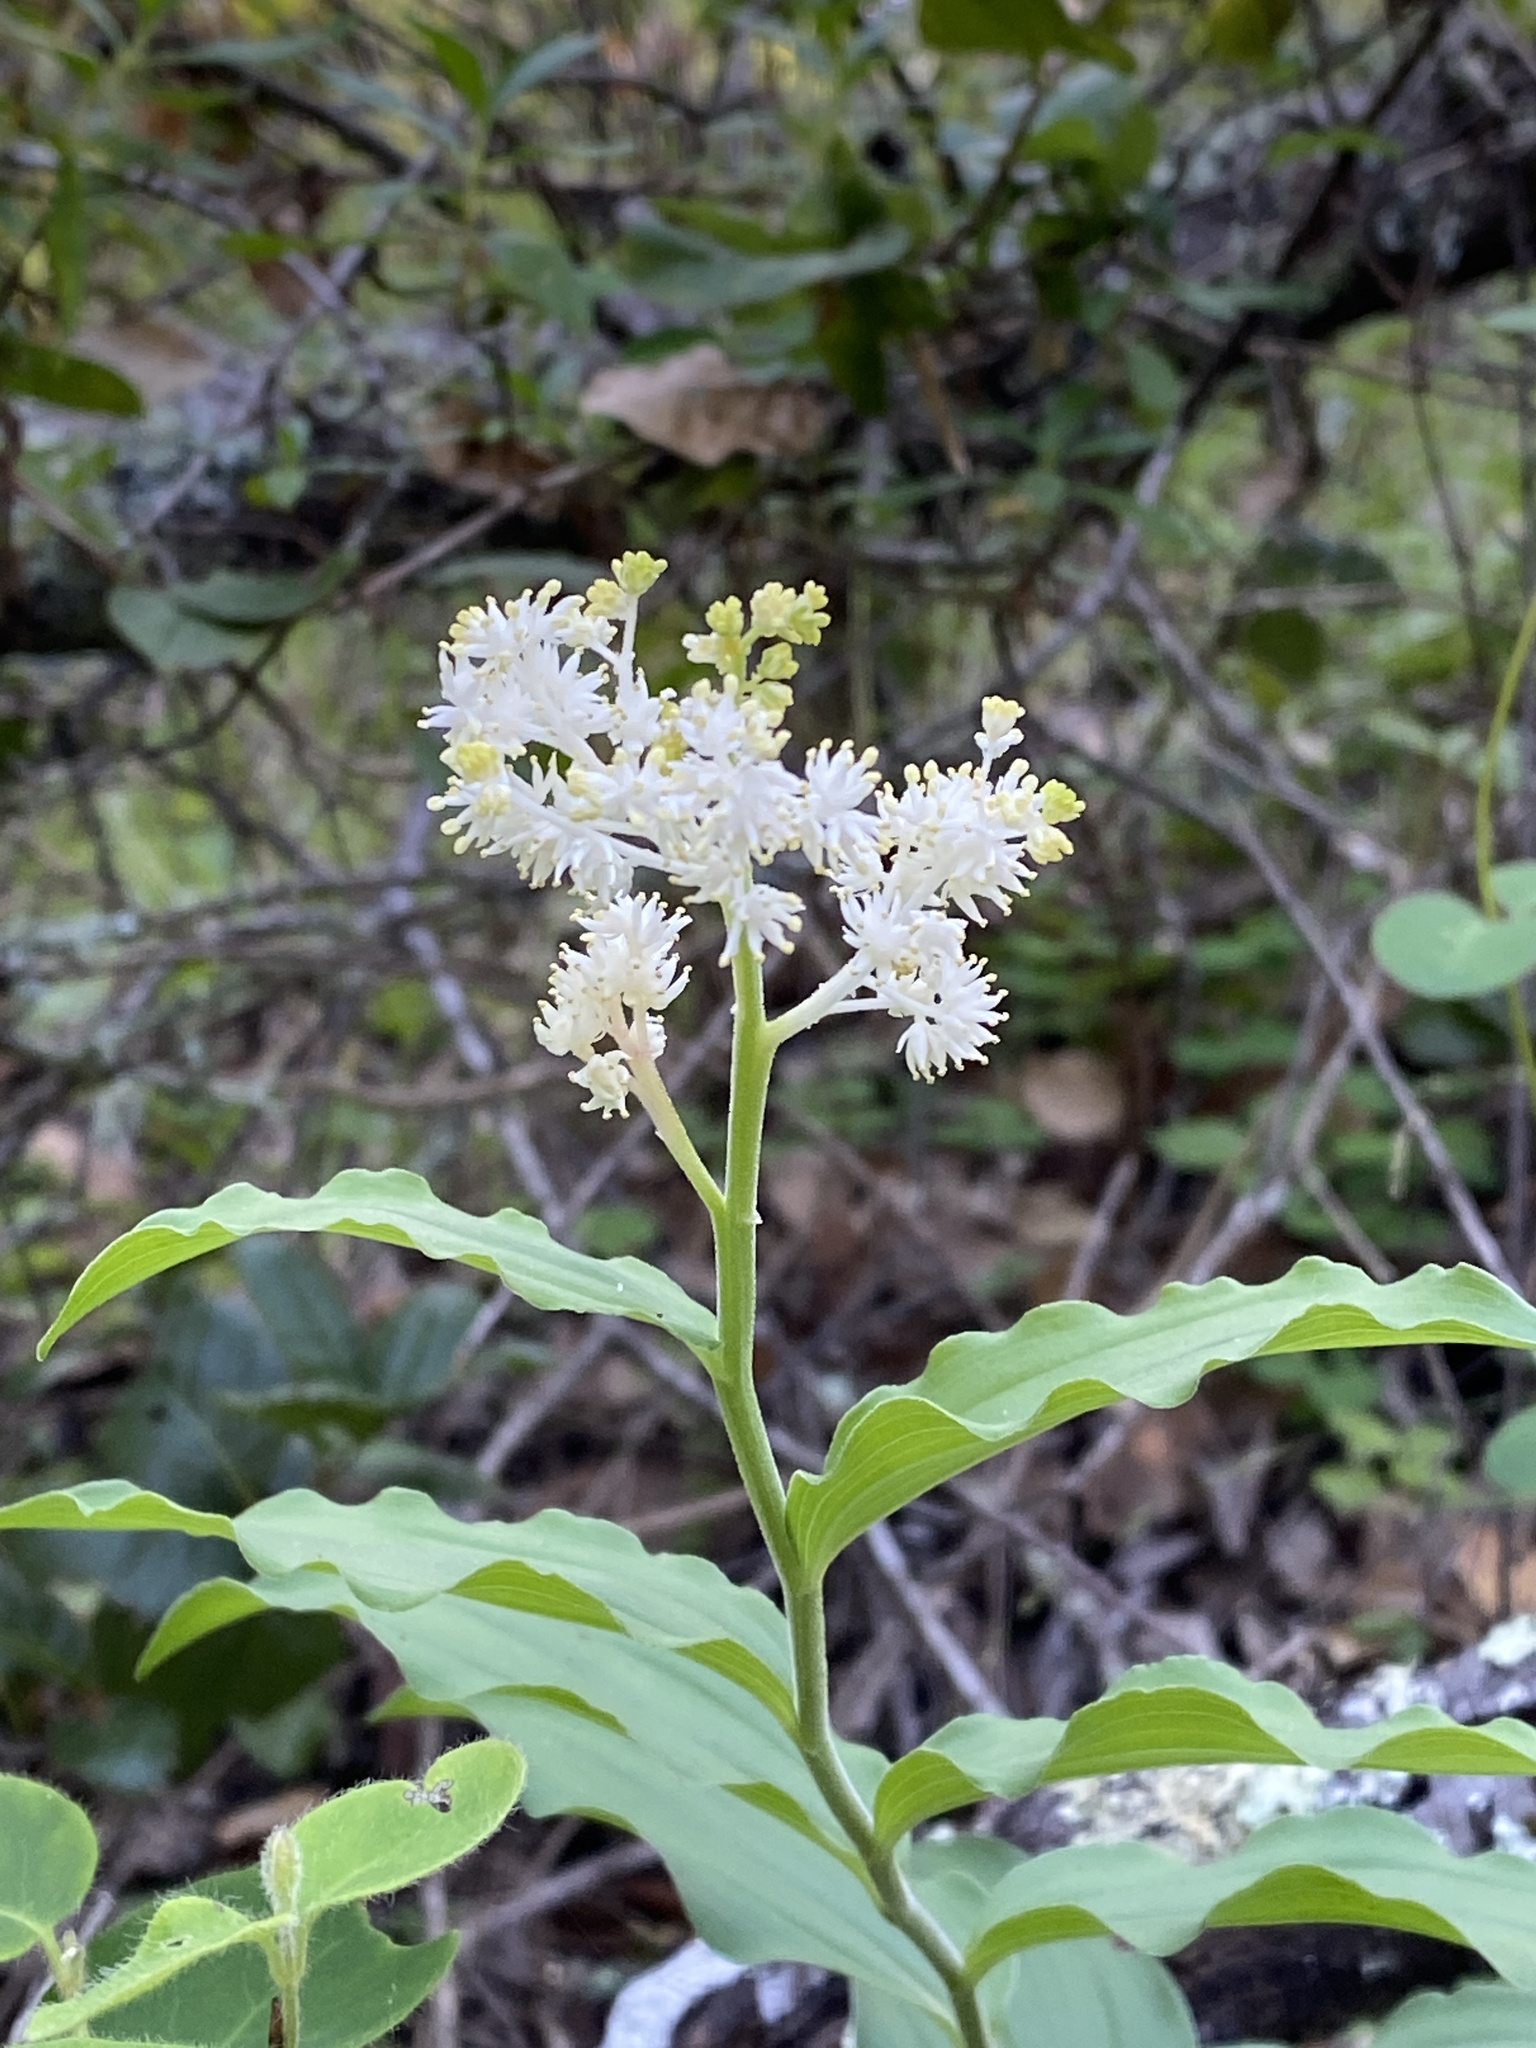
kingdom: Plantae
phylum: Tracheophyta
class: Liliopsida
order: Asparagales
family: Asparagaceae
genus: Maianthemum
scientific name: Maianthemum racemosum
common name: False spikenard
